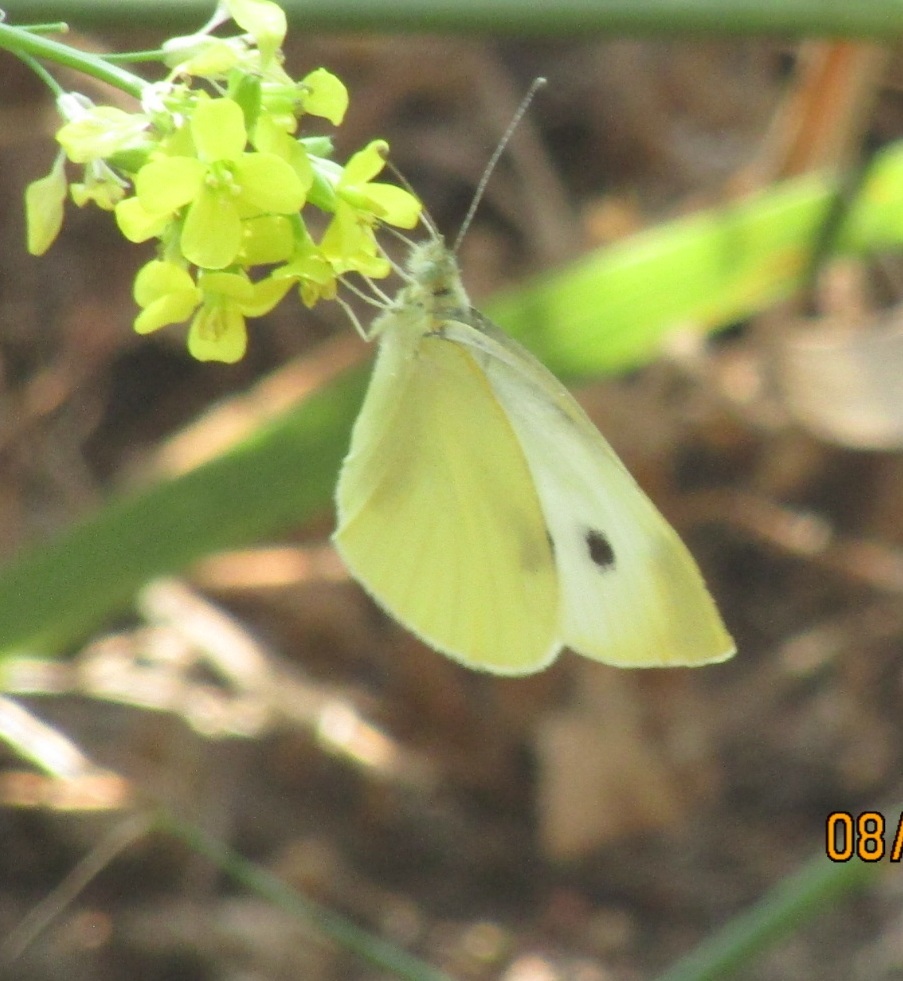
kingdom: Animalia
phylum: Arthropoda
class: Insecta
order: Lepidoptera
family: Pieridae
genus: Pieris
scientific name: Pieris rapae
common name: Small white
